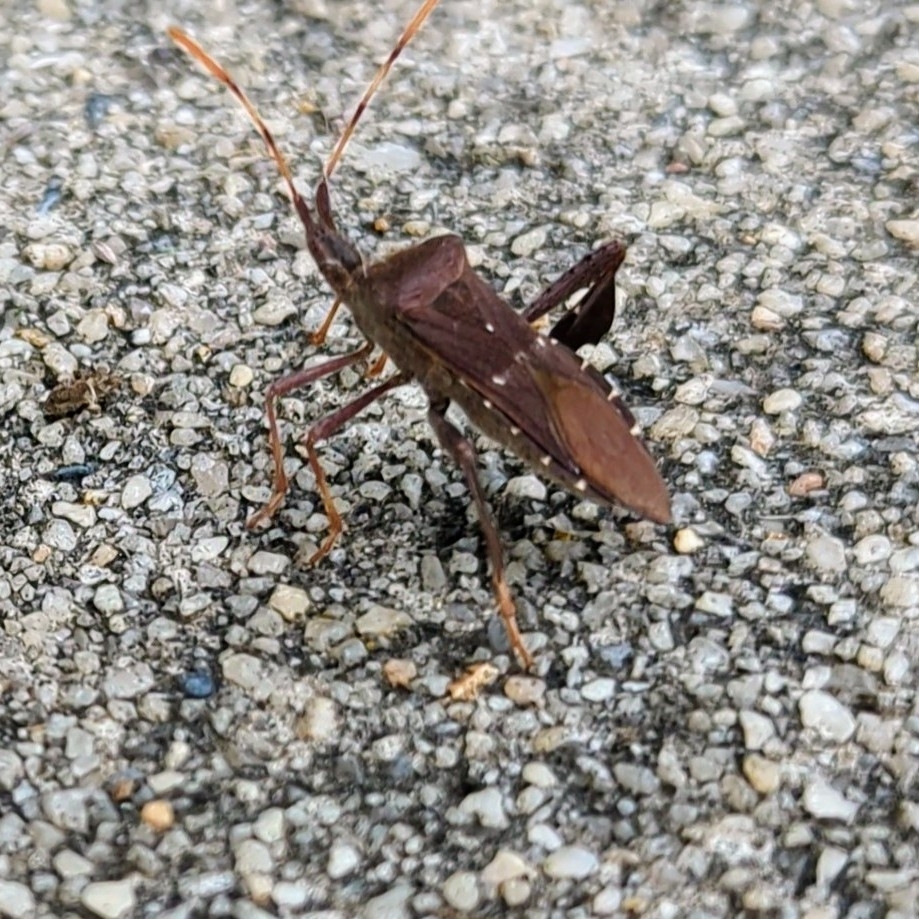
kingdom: Animalia
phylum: Arthropoda
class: Insecta
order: Hemiptera
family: Coreidae
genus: Leptoglossus
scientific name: Leptoglossus oppositus
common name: Northern leaf-footed bug
